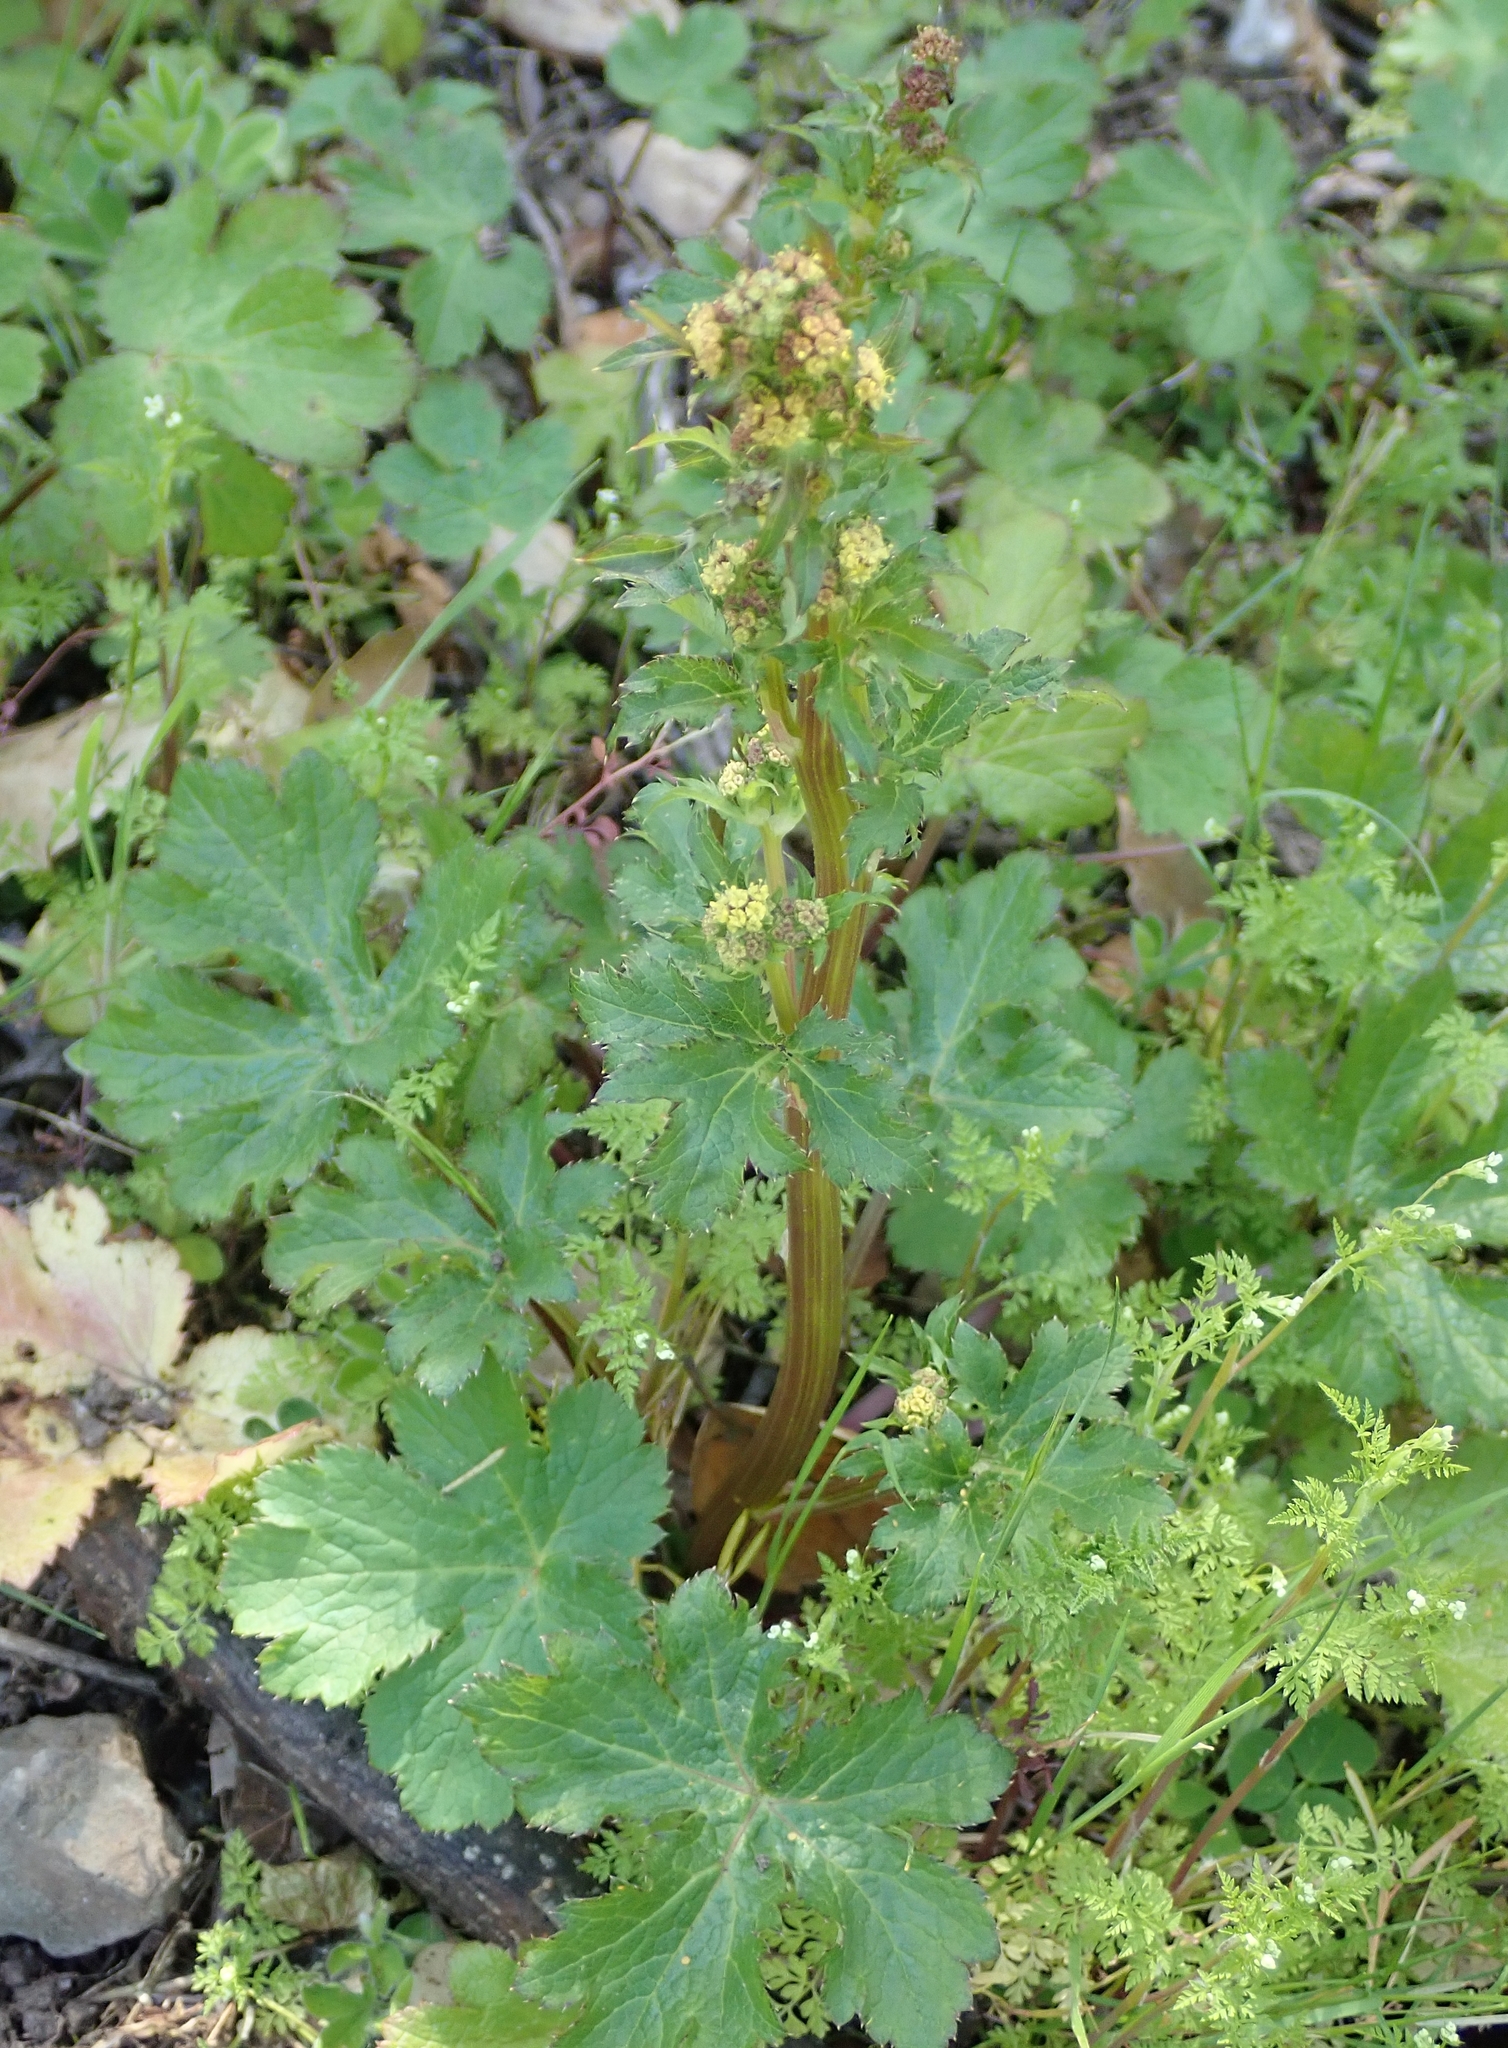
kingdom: Plantae
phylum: Tracheophyta
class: Magnoliopsida
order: Apiales
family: Apiaceae
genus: Sanicula
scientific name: Sanicula crassicaulis
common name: Western snakeroot
